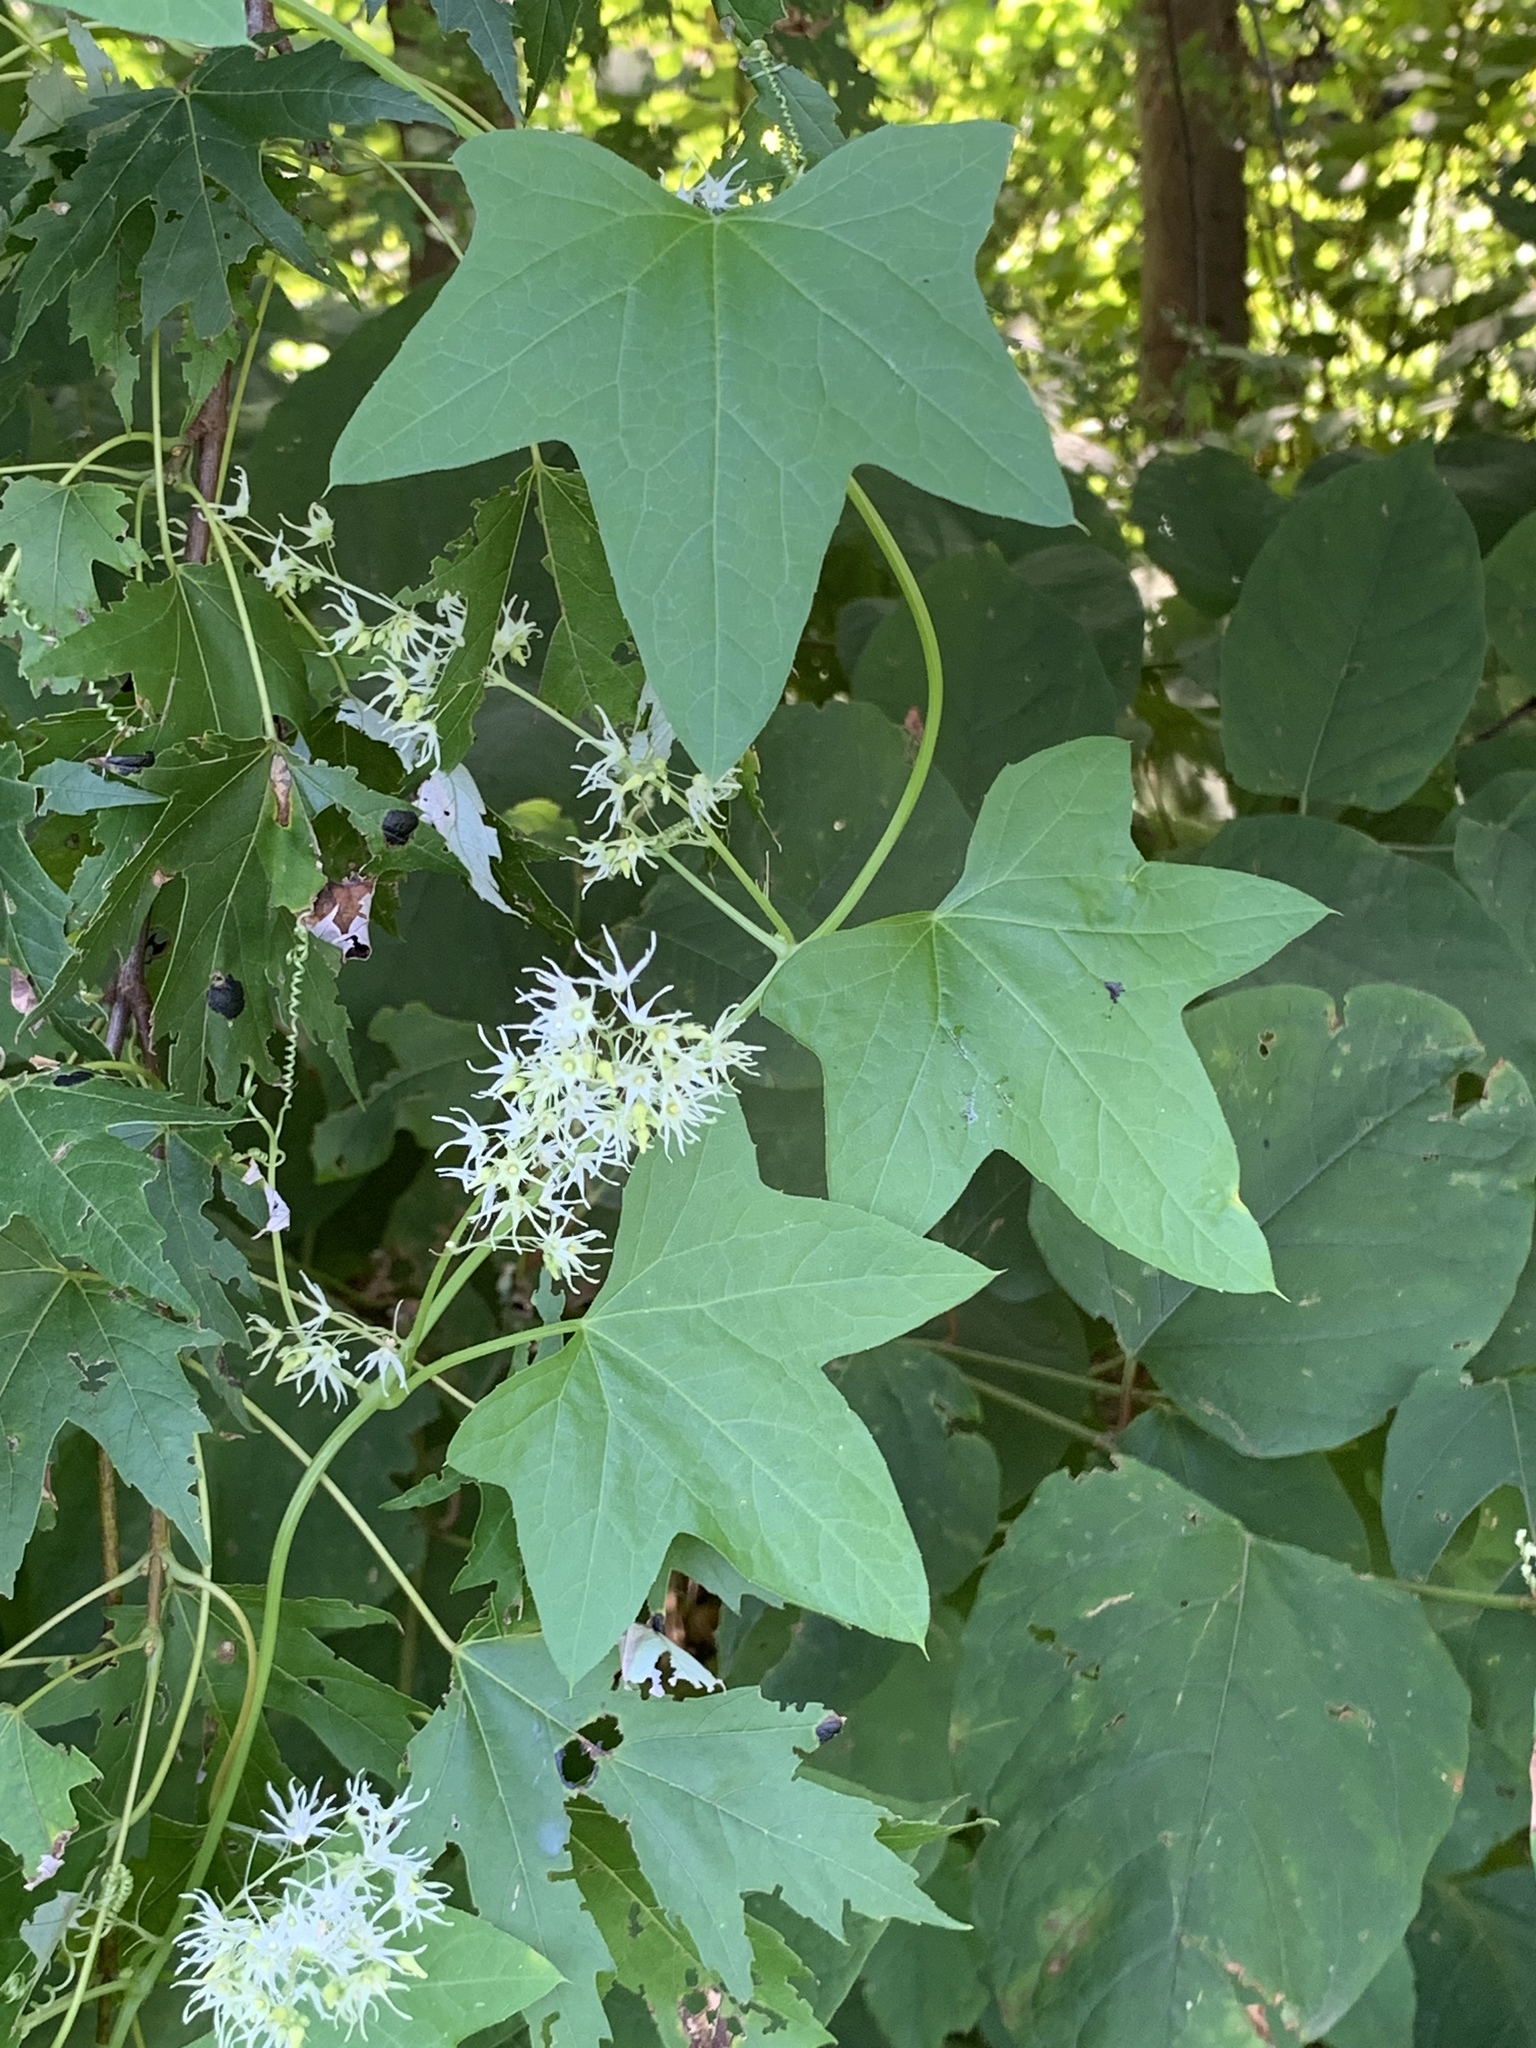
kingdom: Plantae
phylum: Tracheophyta
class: Magnoliopsida
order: Cucurbitales
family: Cucurbitaceae
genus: Echinocystis
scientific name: Echinocystis lobata
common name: Wild cucumber
